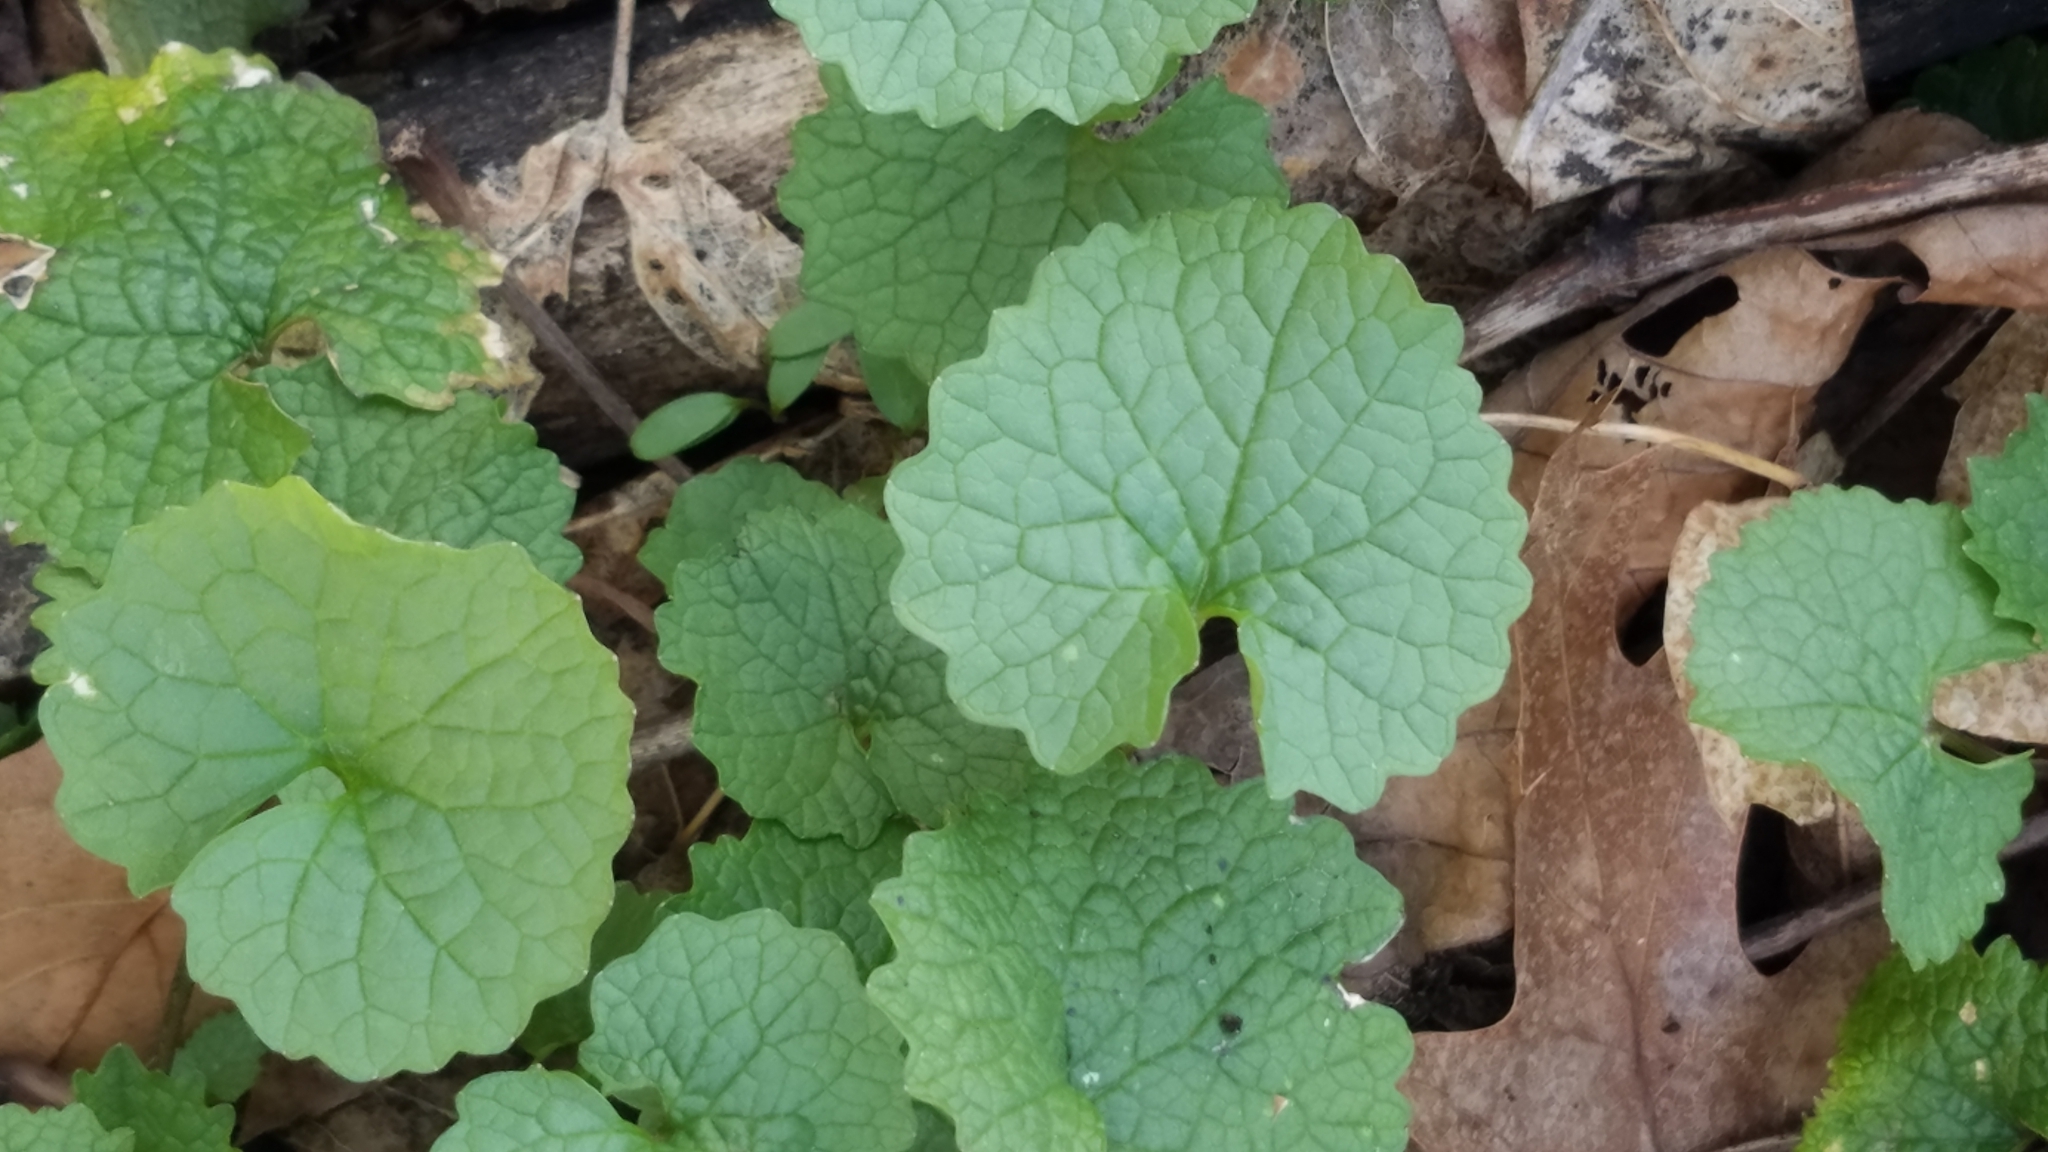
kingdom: Plantae
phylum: Tracheophyta
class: Magnoliopsida
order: Brassicales
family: Brassicaceae
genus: Alliaria
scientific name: Alliaria petiolata
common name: Garlic mustard
